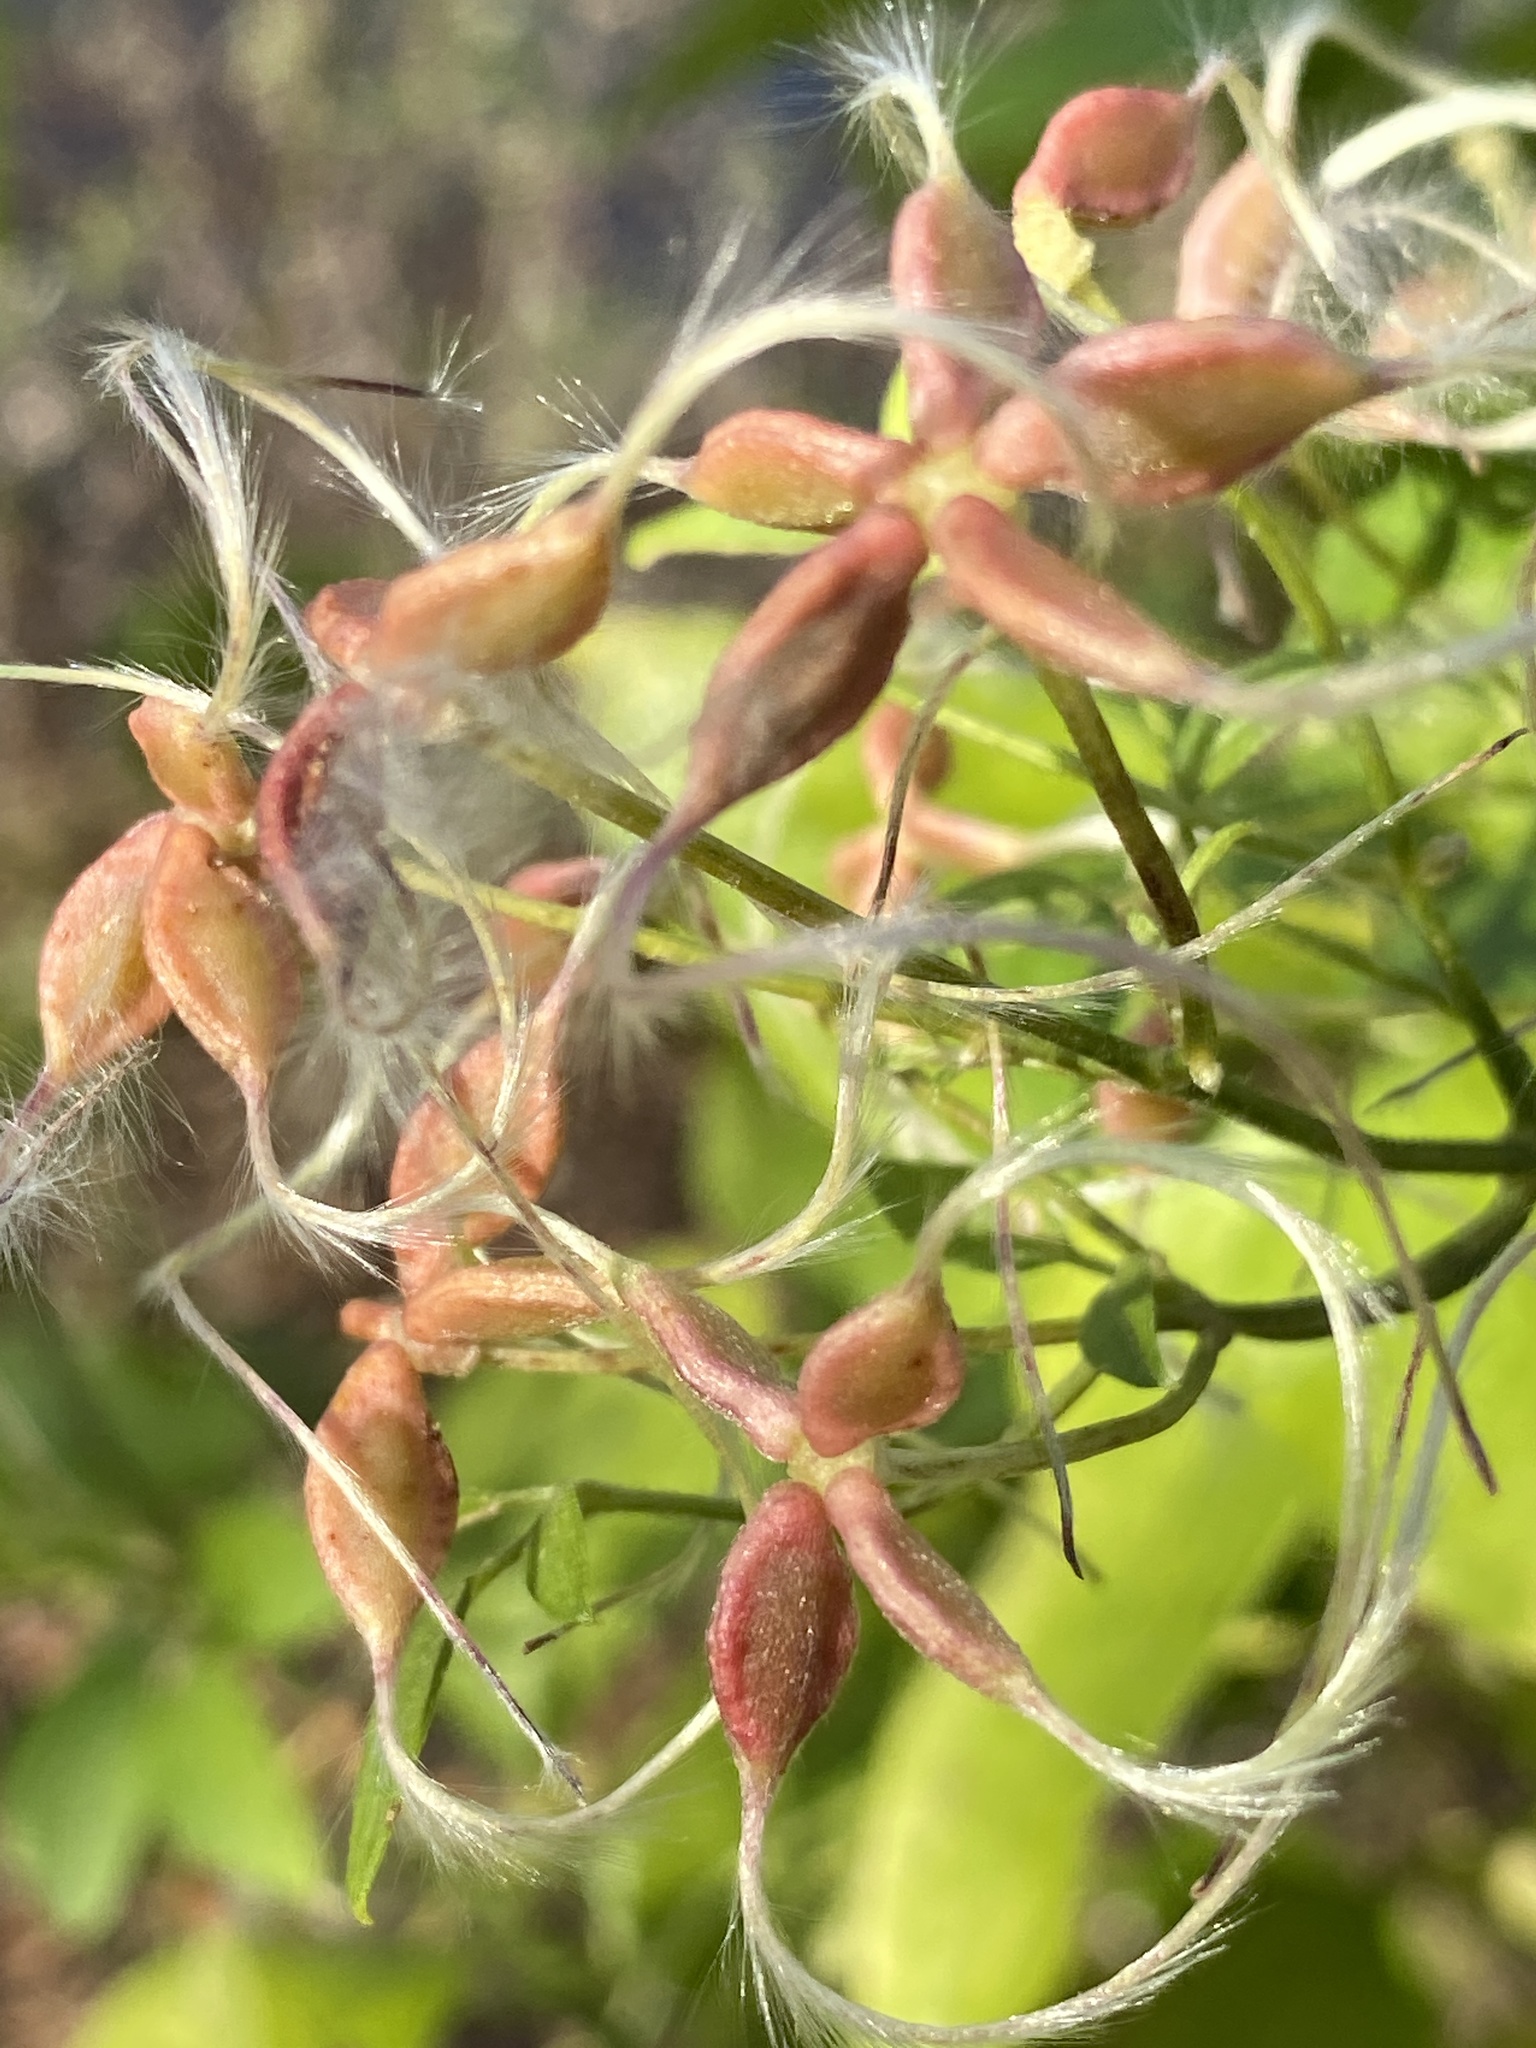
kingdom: Plantae
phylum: Tracheophyta
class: Magnoliopsida
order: Ranunculales
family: Ranunculaceae
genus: Clematis
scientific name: Clematis terniflora
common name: Sweet autumn clematis
